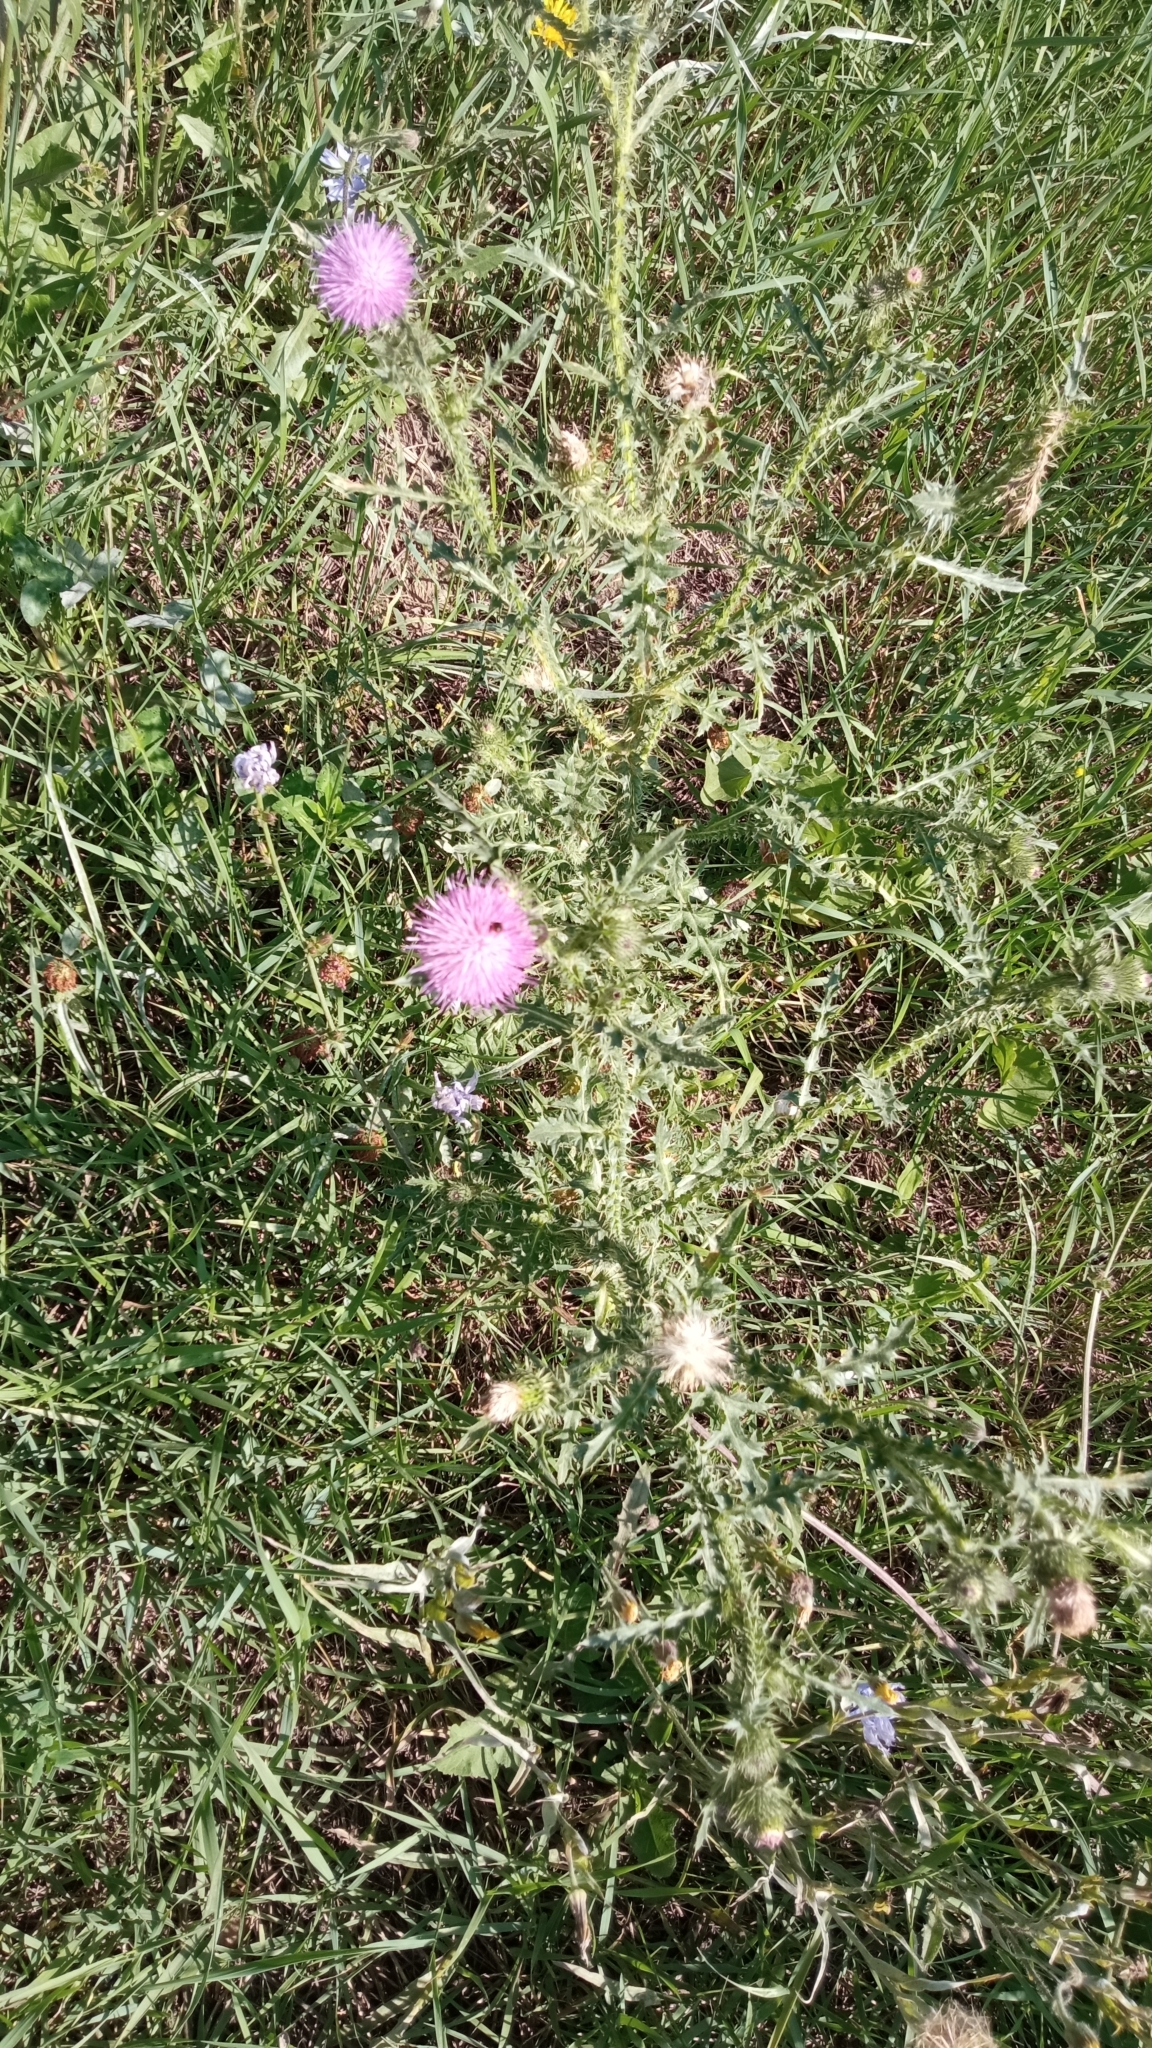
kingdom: Plantae
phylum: Tracheophyta
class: Magnoliopsida
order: Asterales
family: Asteraceae
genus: Carduus
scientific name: Carduus acanthoides
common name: Plumeless thistle
